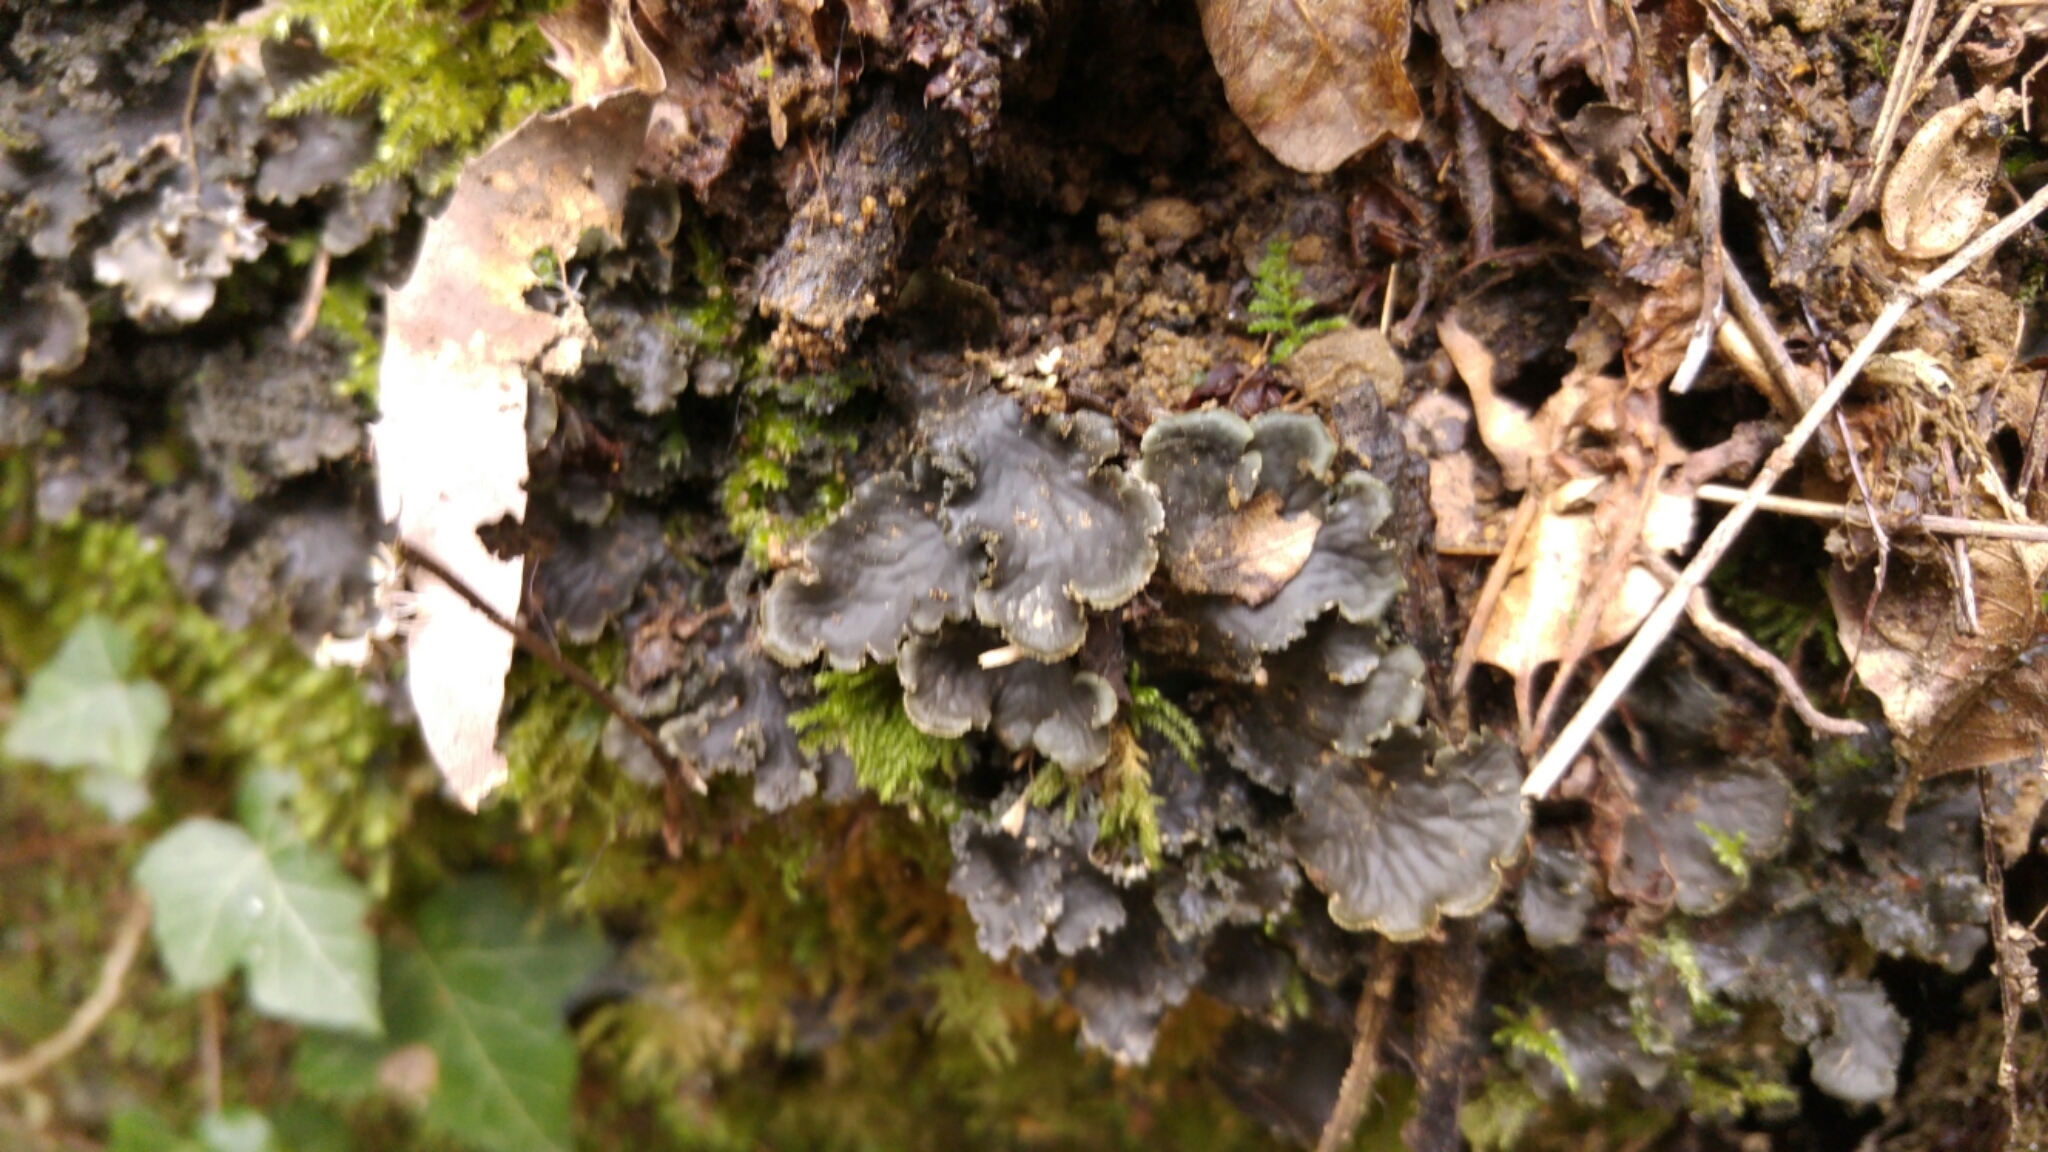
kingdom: Fungi
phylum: Ascomycota
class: Lecanoromycetes
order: Peltigerales
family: Peltigeraceae
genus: Peltigera
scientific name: Peltigera praetextata
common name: Scaly dog-lichen
